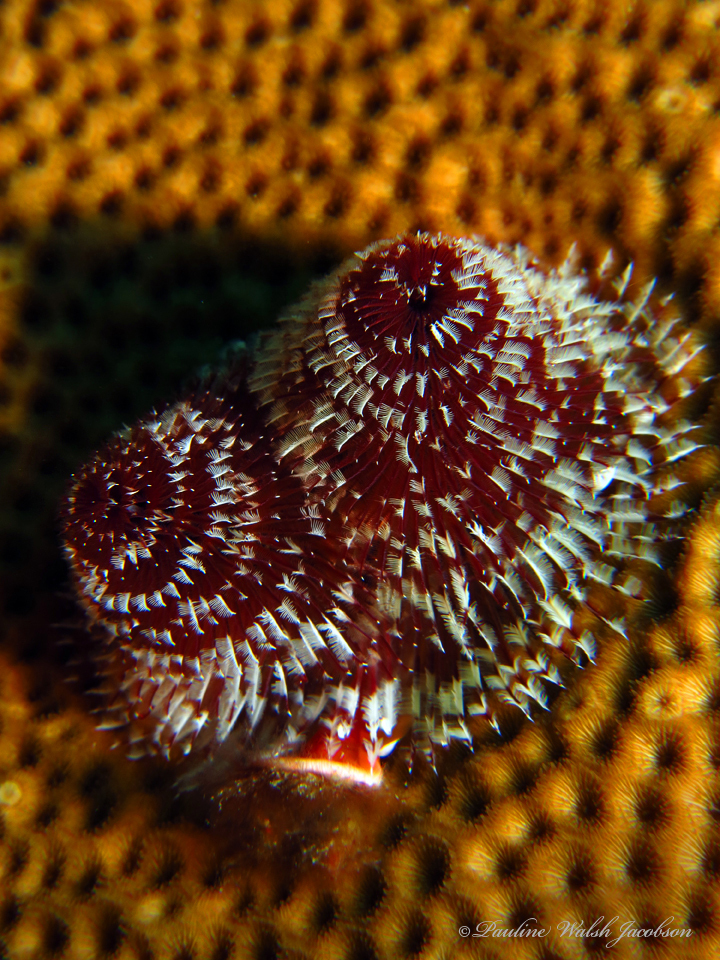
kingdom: Animalia
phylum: Annelida
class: Polychaeta
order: Sabellida
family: Serpulidae
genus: Spirobranchus
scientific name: Spirobranchus giganteus
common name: Christmas tree worm
